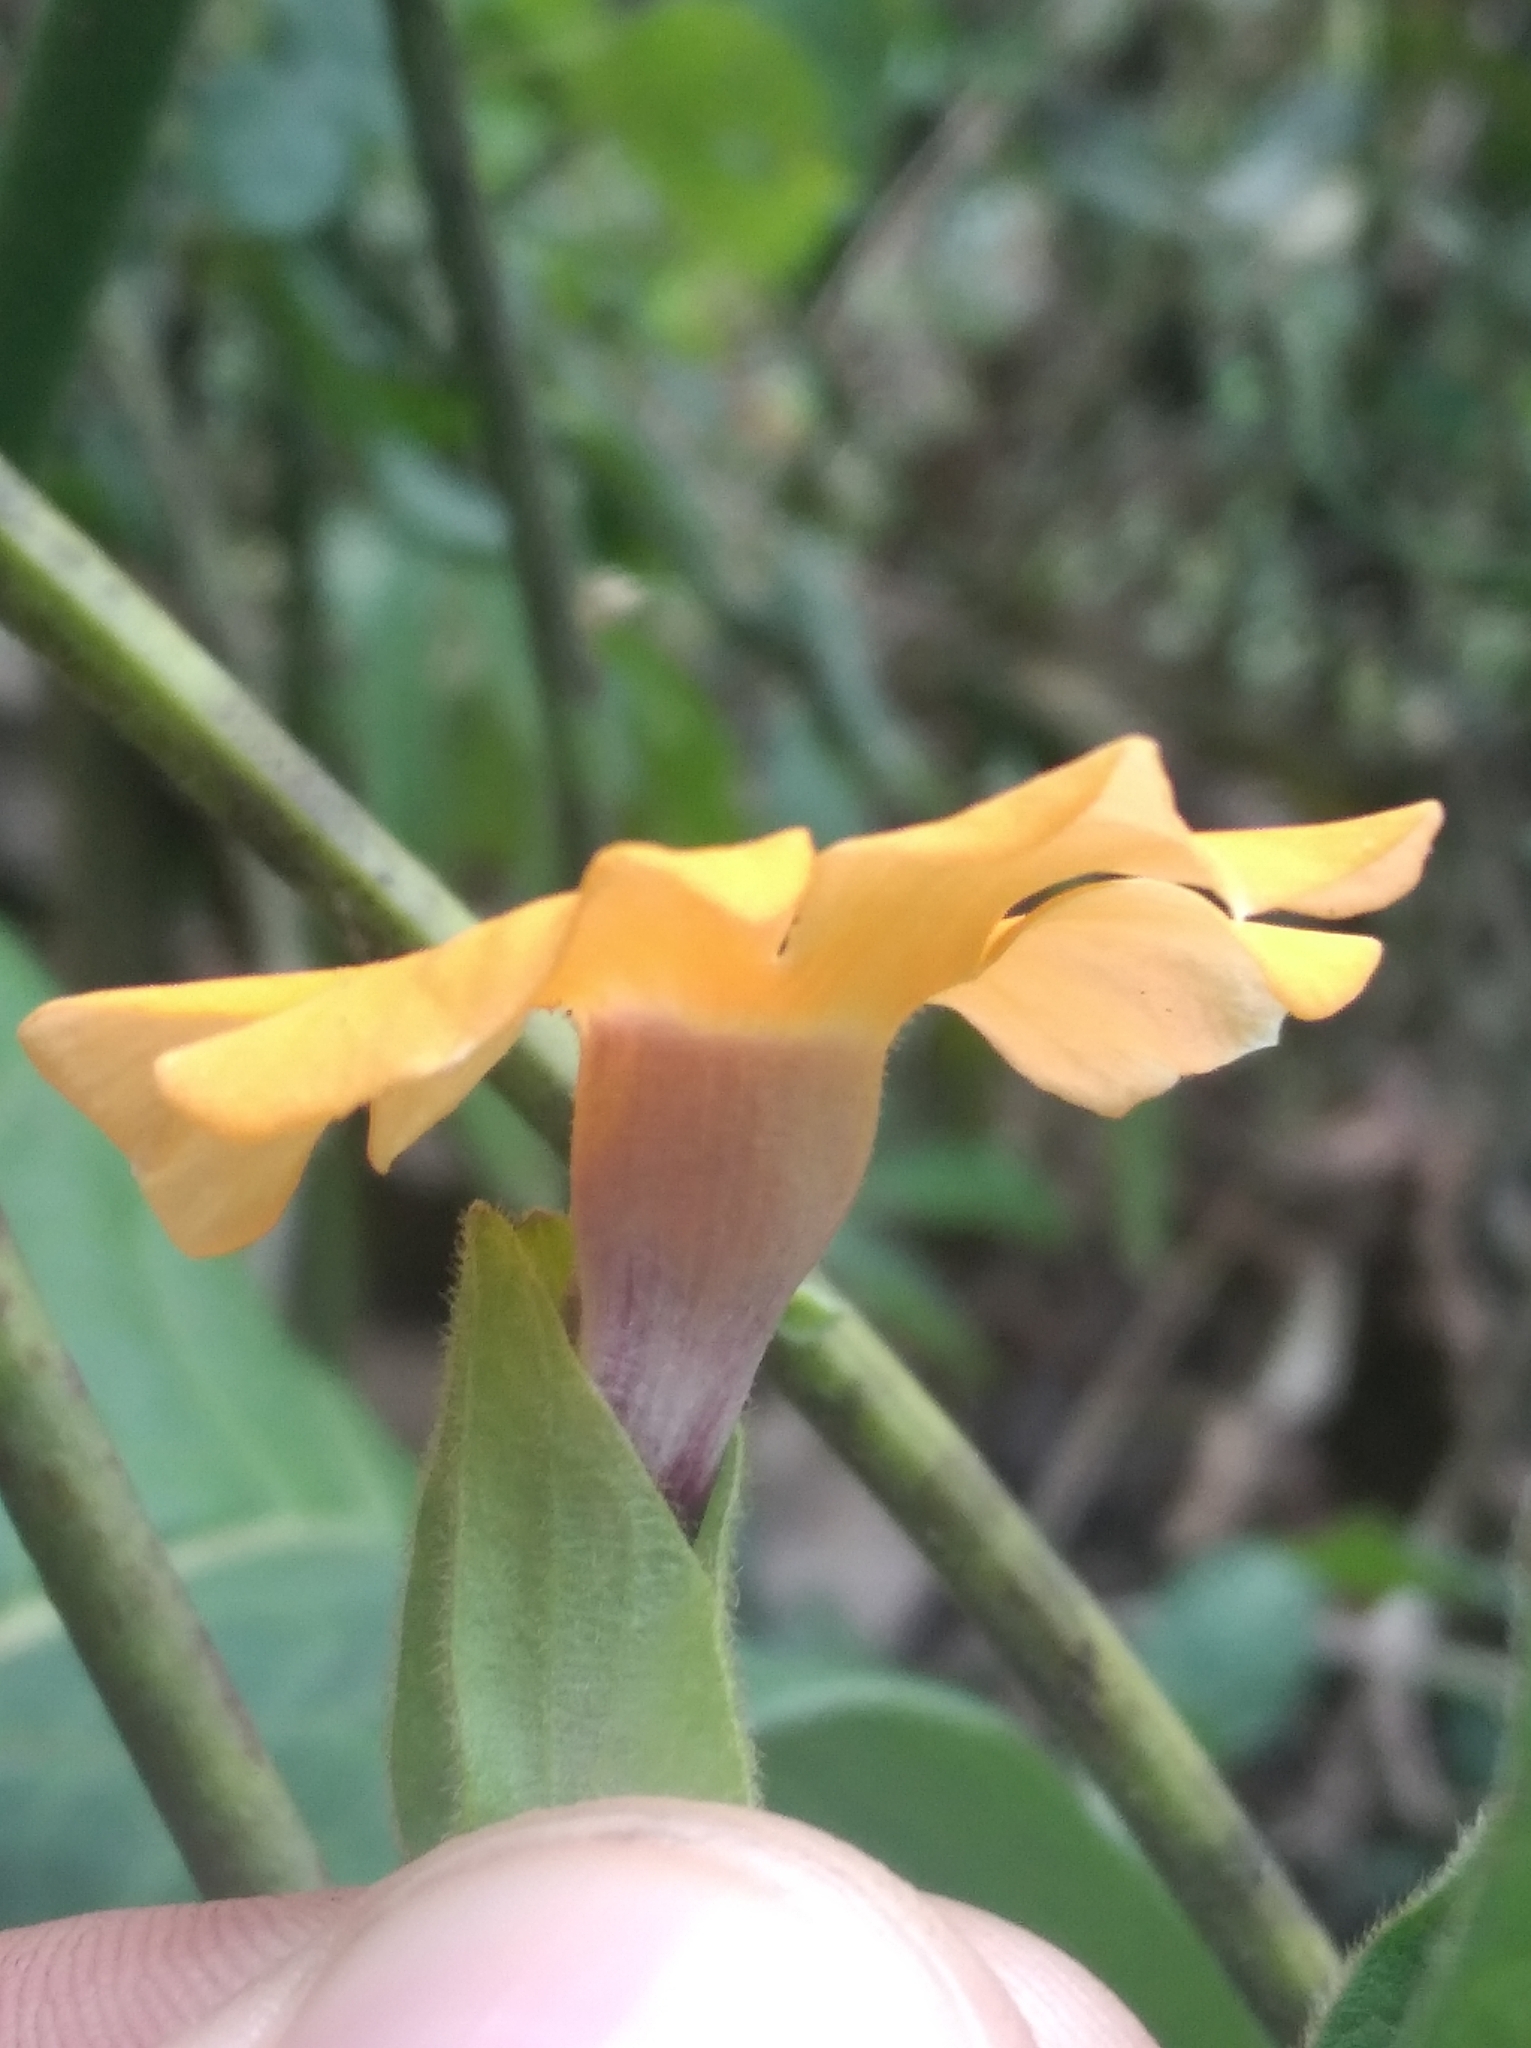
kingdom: Plantae
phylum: Tracheophyta
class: Magnoliopsida
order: Lamiales
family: Acanthaceae
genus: Thunbergia
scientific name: Thunbergia alata
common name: Blackeyed susan vine
